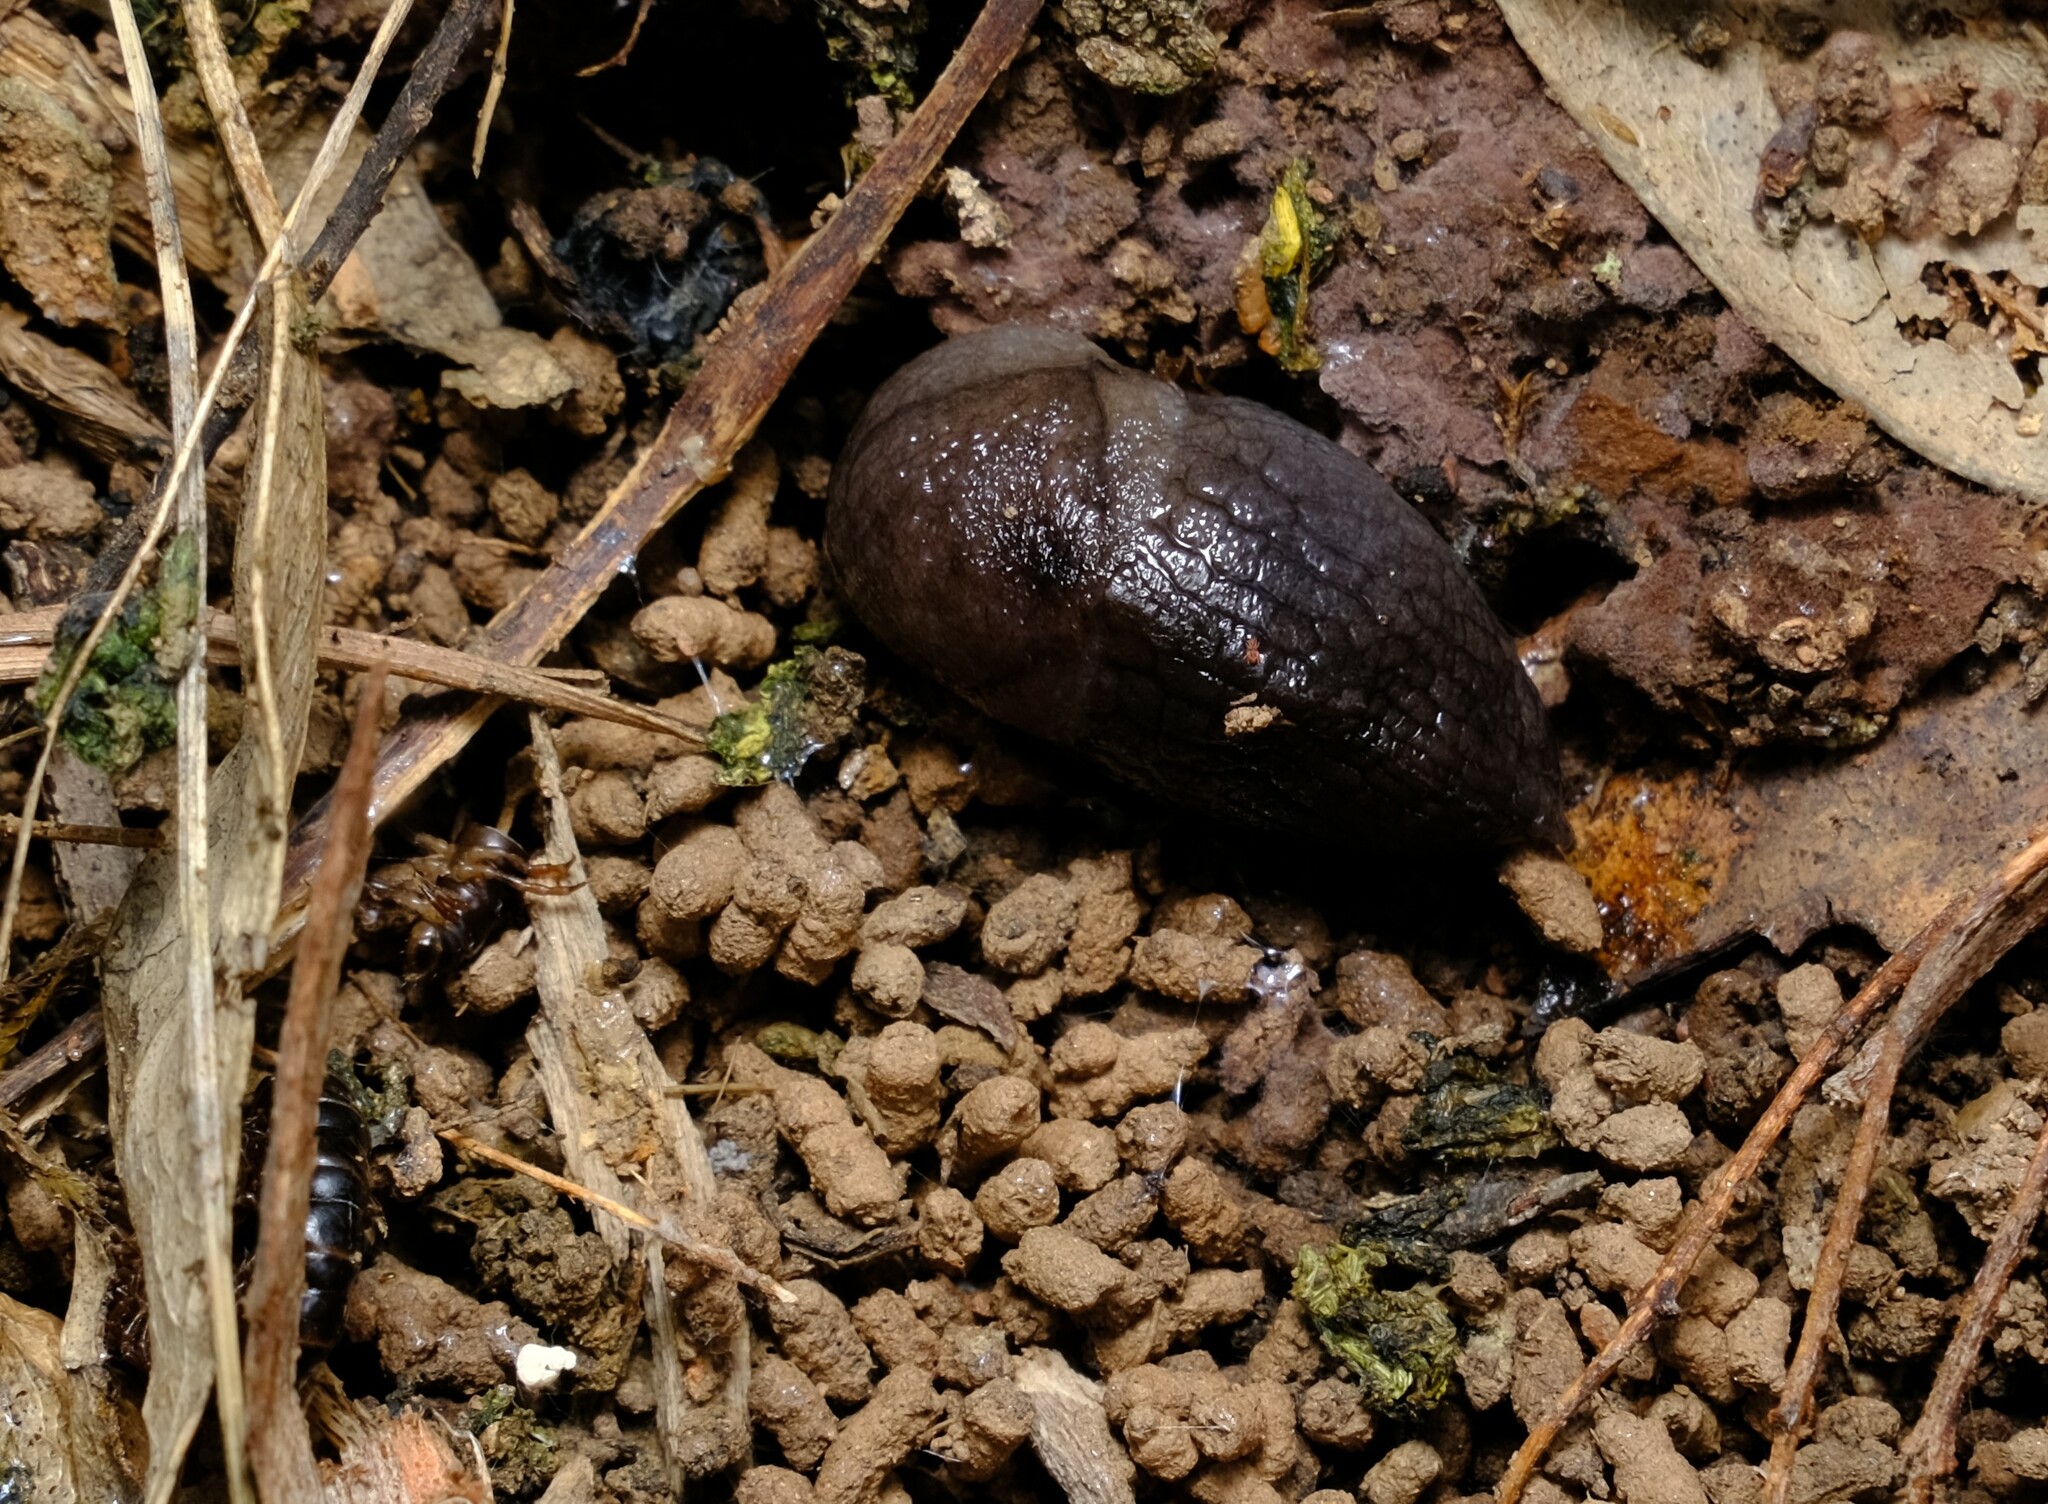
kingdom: Animalia
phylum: Mollusca
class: Gastropoda
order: Stylommatophora
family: Milacidae
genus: Milax
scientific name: Milax gagates
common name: Greenhouse slug
